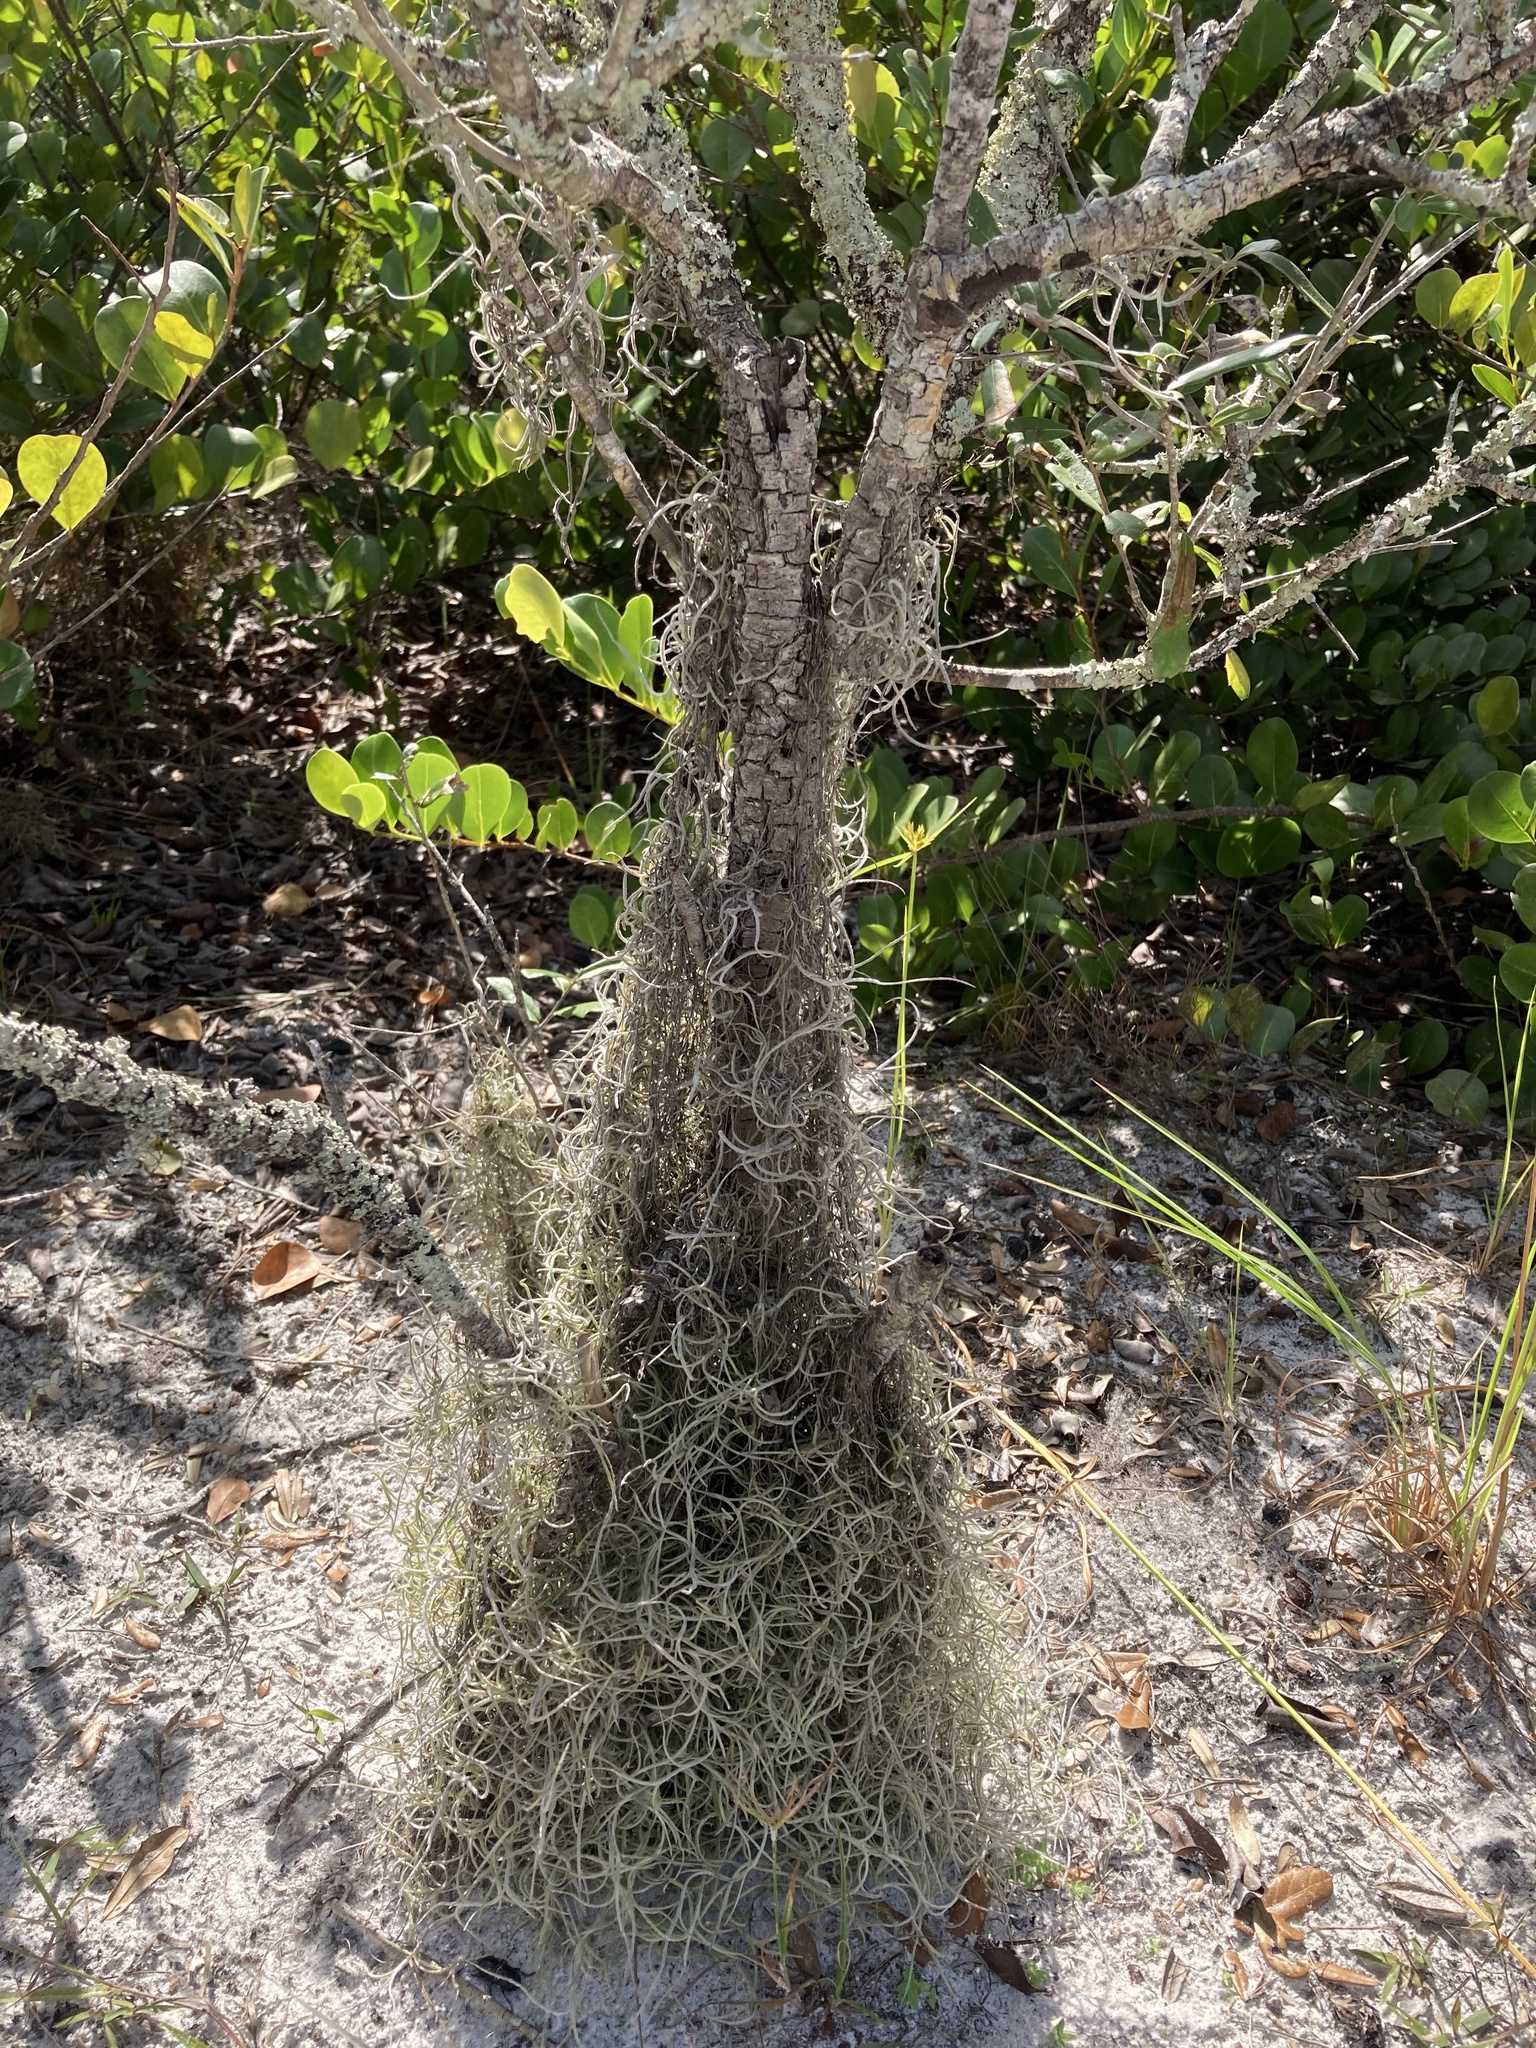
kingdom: Plantae
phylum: Tracheophyta
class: Liliopsida
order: Poales
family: Bromeliaceae
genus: Tillandsia
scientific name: Tillandsia usneoides
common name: Spanish moss
